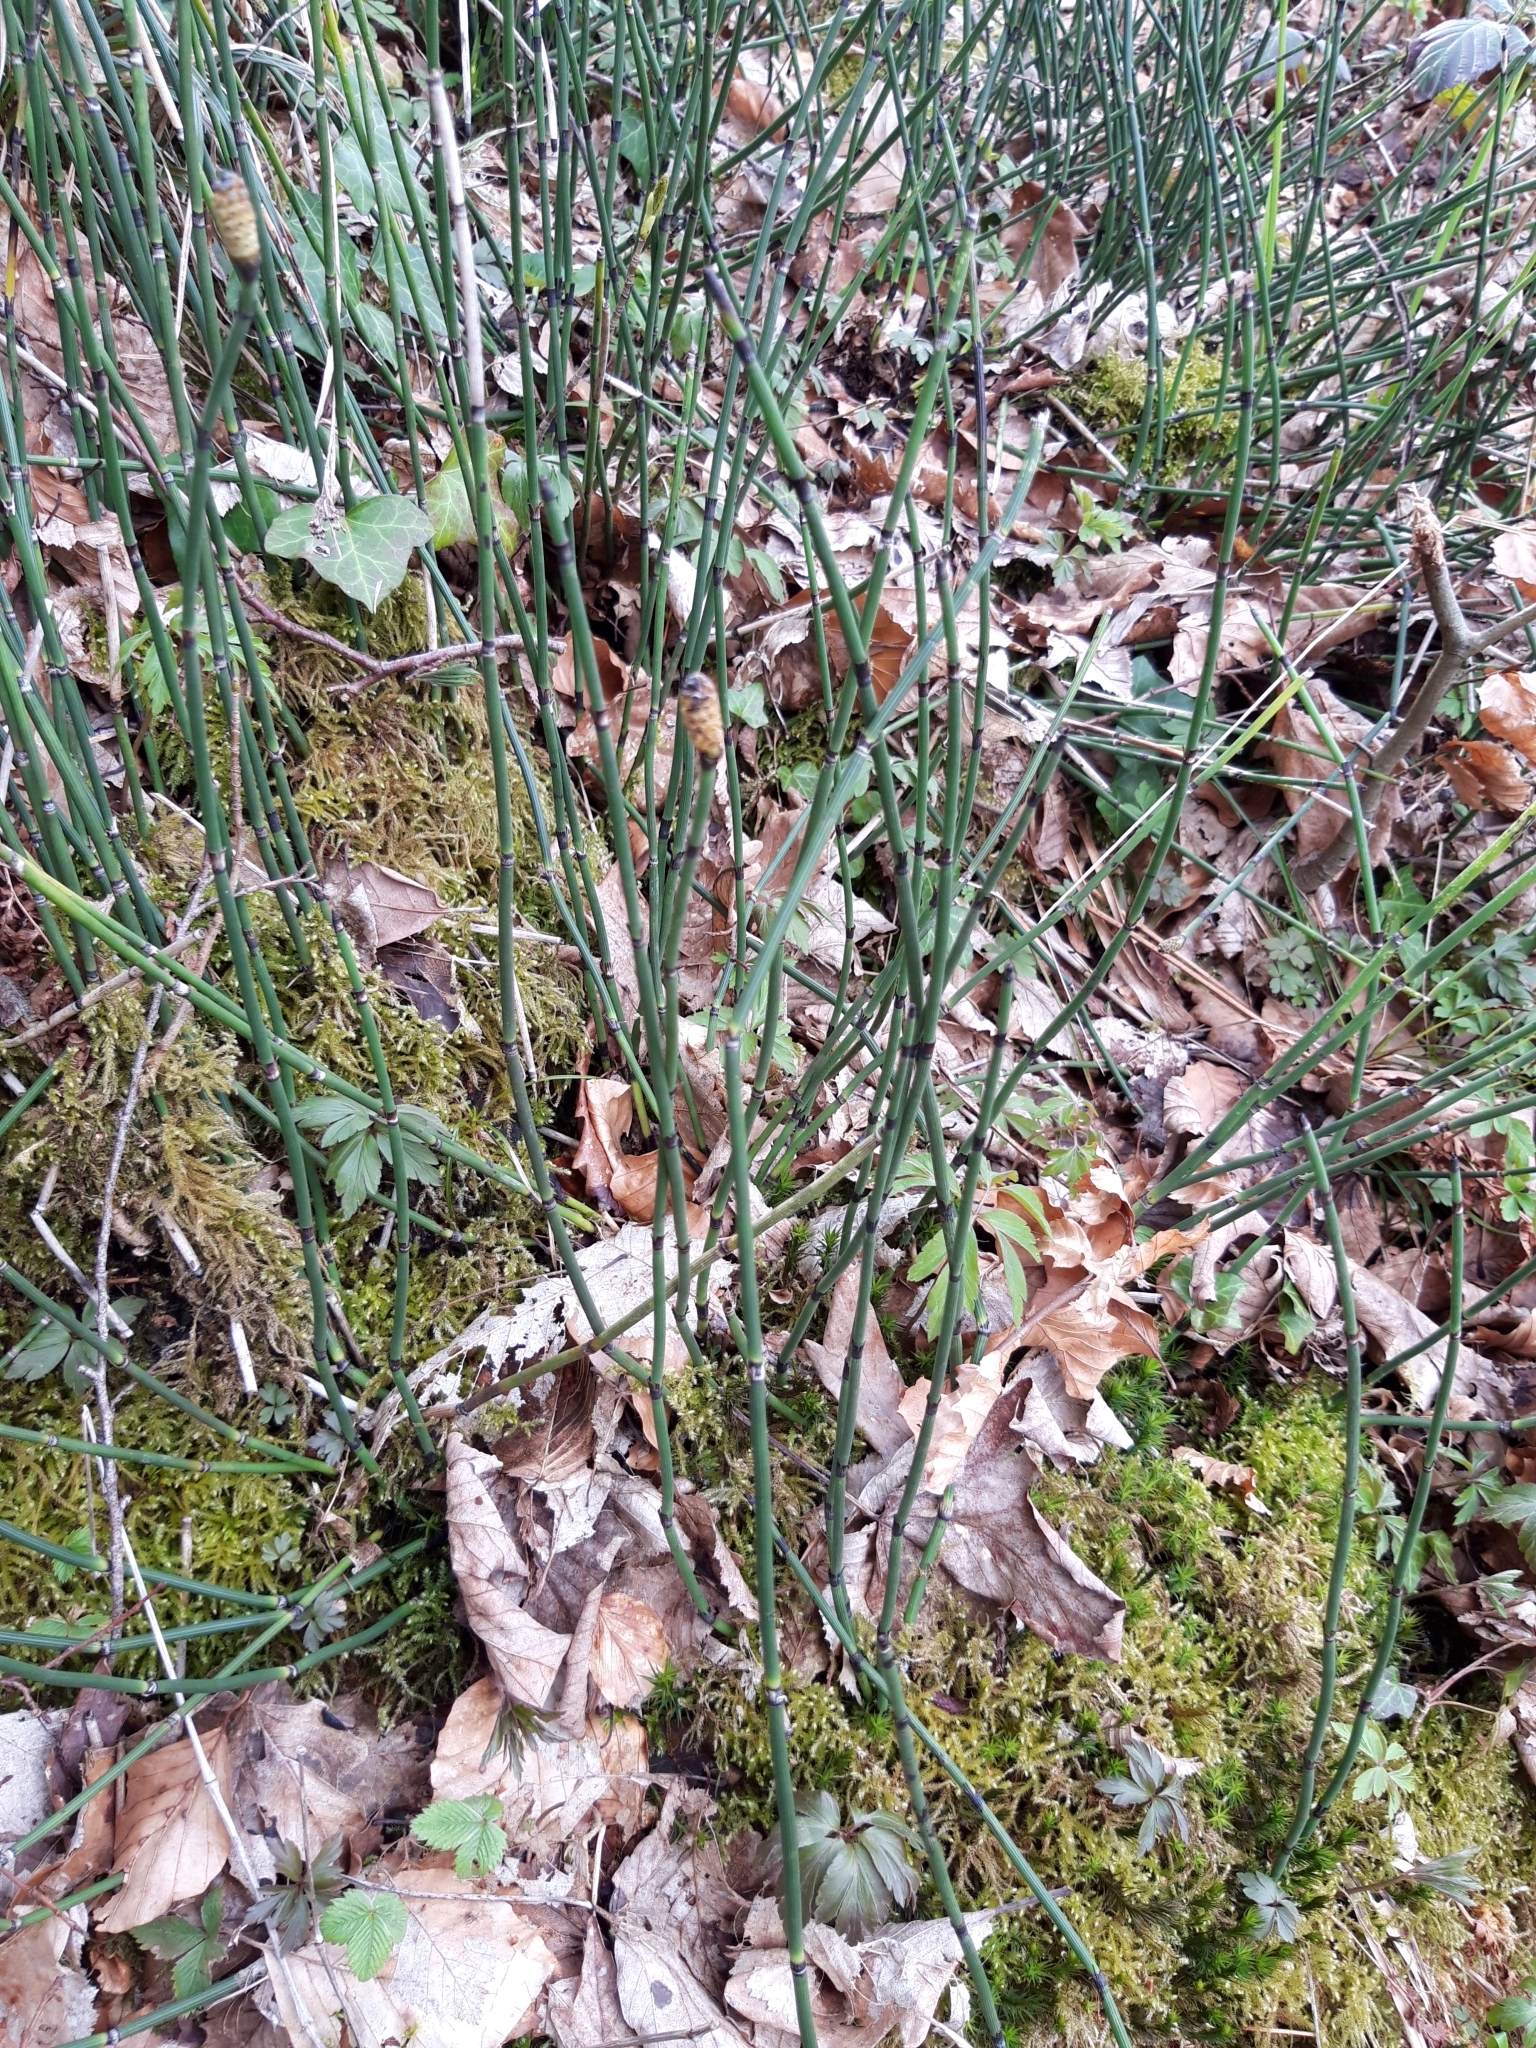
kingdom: Plantae
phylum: Tracheophyta
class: Polypodiopsida
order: Equisetales
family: Equisetaceae
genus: Equisetum
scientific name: Equisetum hyemale
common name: Rough horsetail
